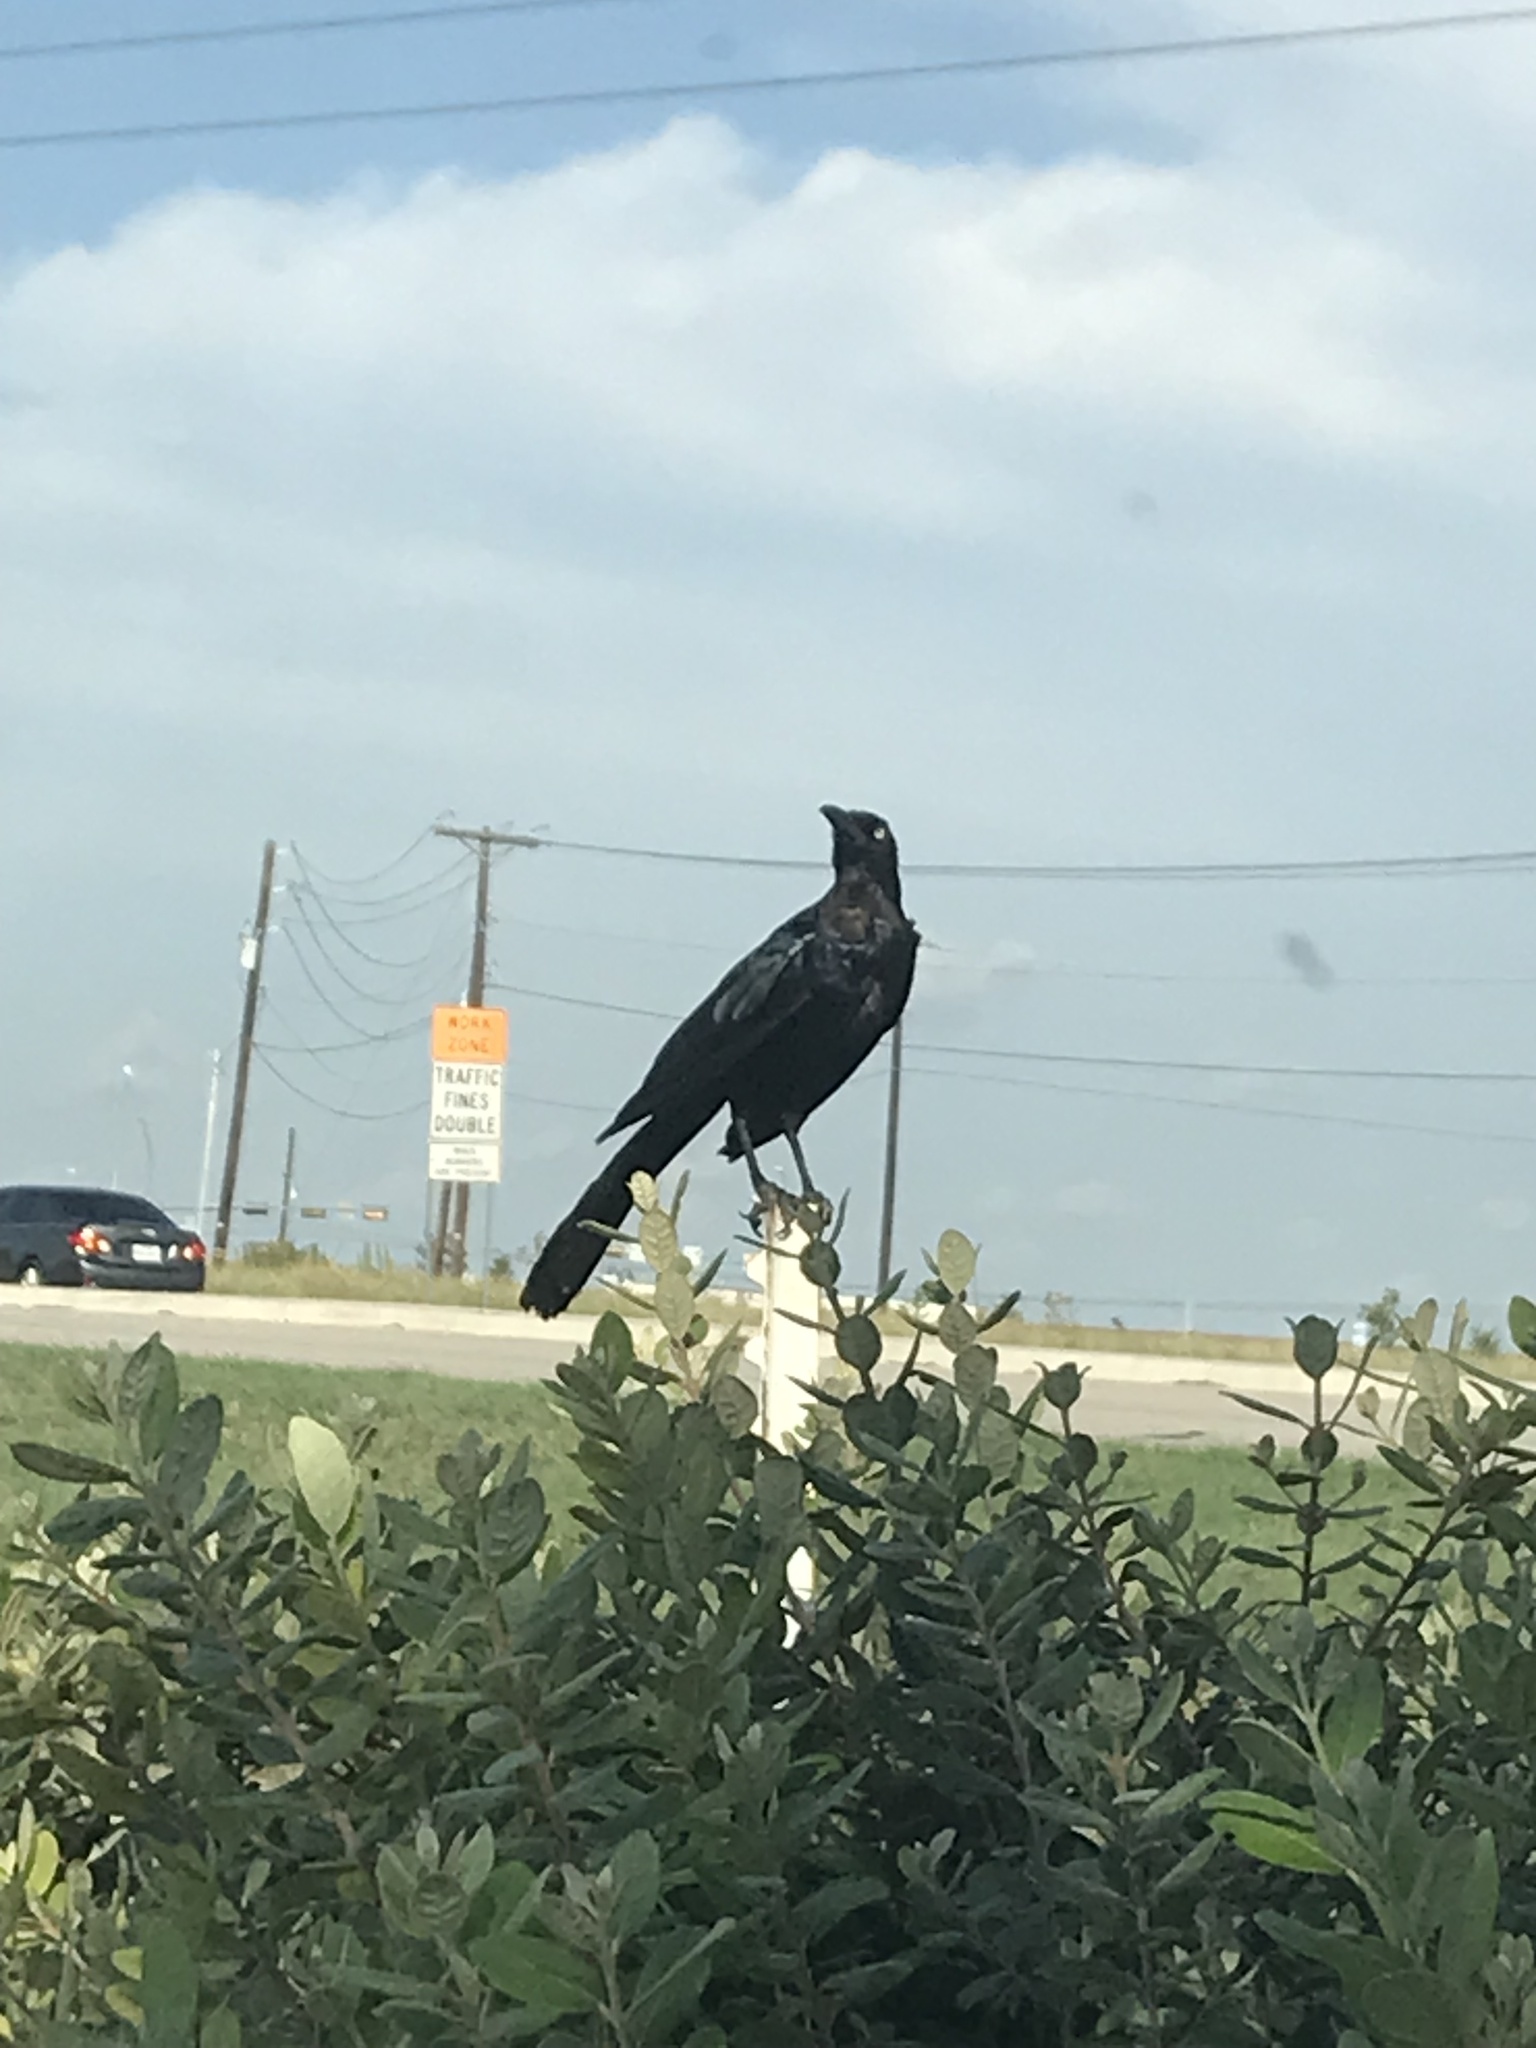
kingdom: Animalia
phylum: Chordata
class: Aves
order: Passeriformes
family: Icteridae
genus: Quiscalus
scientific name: Quiscalus mexicanus
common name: Great-tailed grackle
